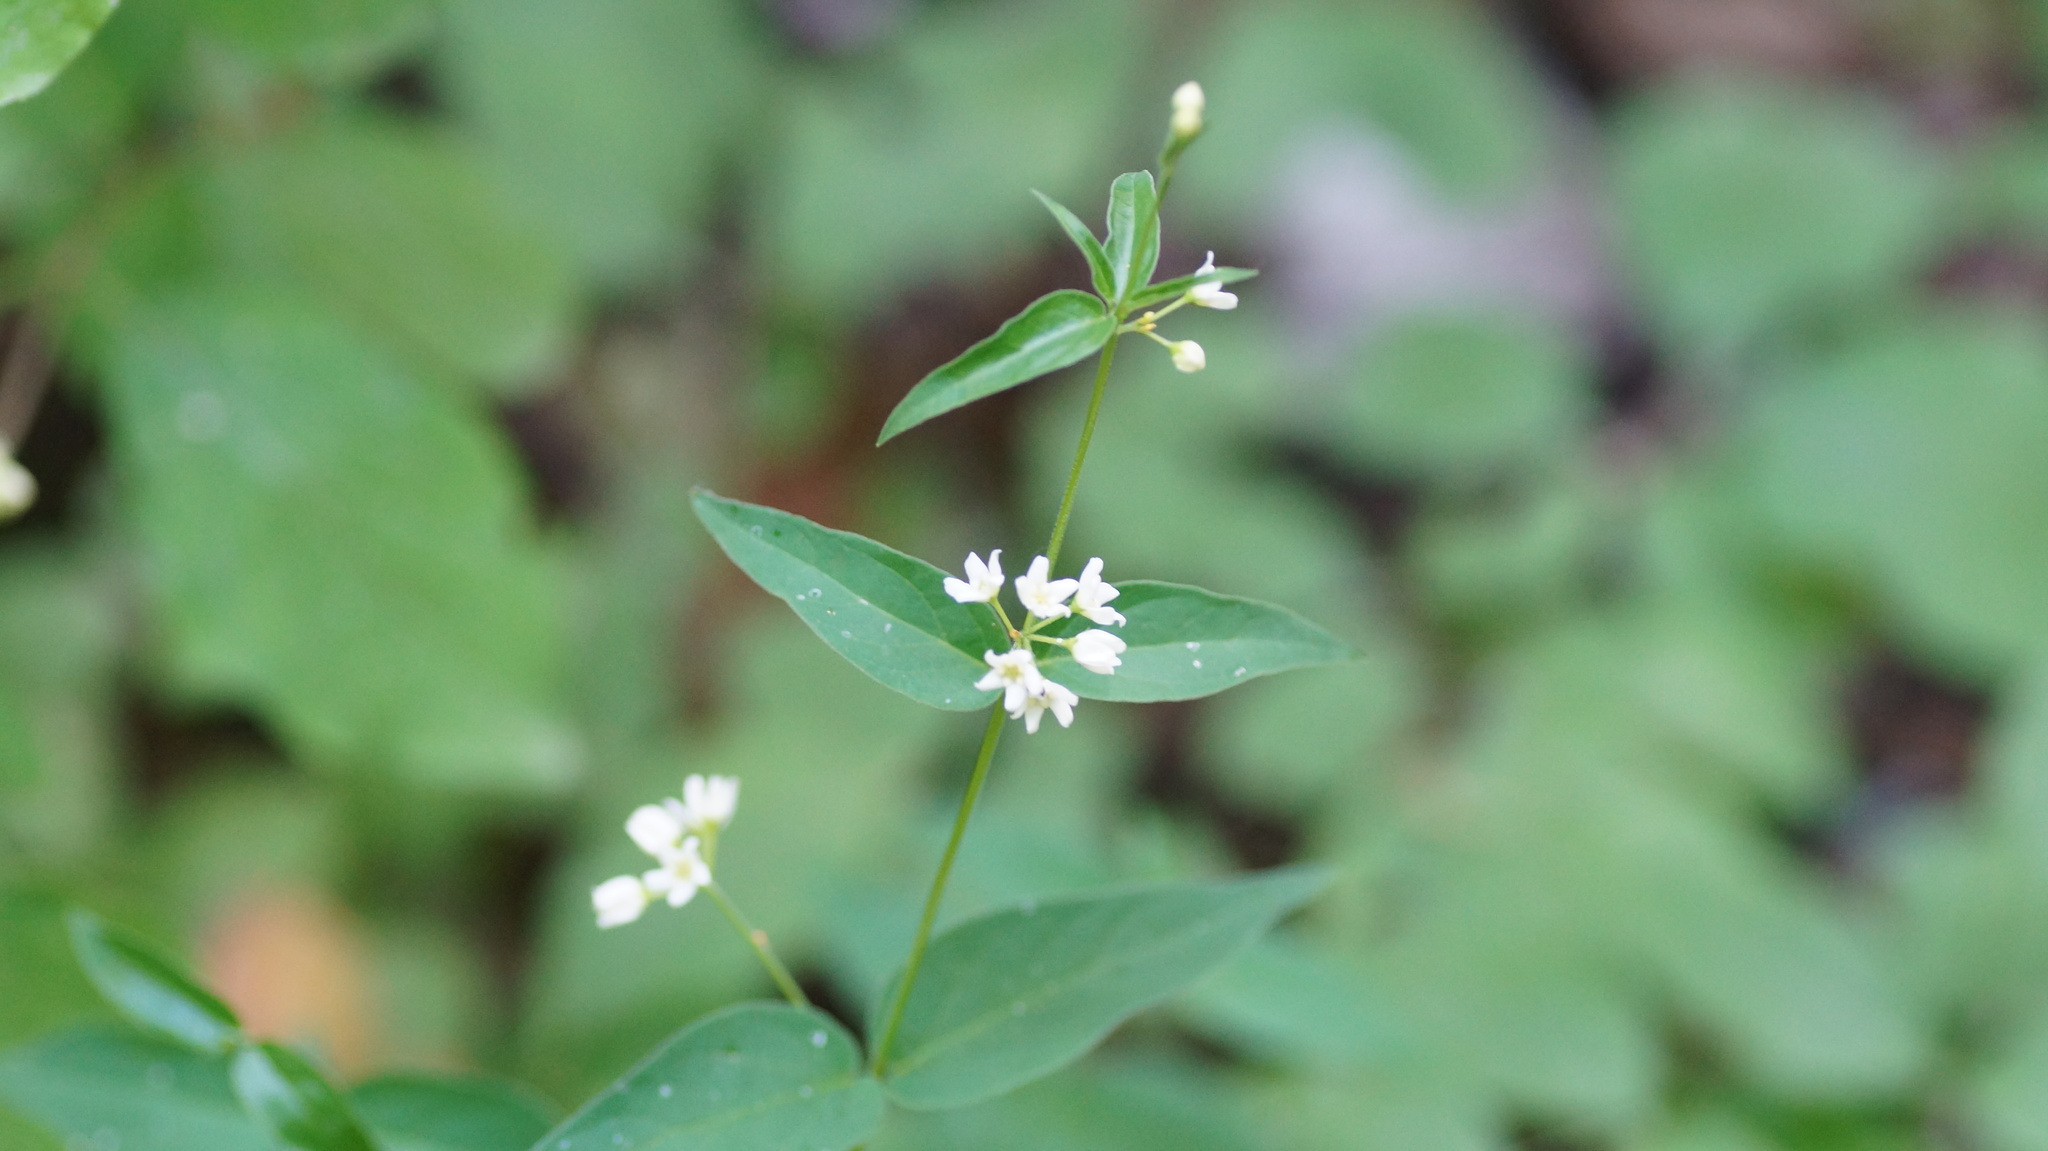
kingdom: Plantae
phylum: Tracheophyta
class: Magnoliopsida
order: Gentianales
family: Apocynaceae
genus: Vincetoxicum
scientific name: Vincetoxicum hirundinaria
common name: White swallowwort
